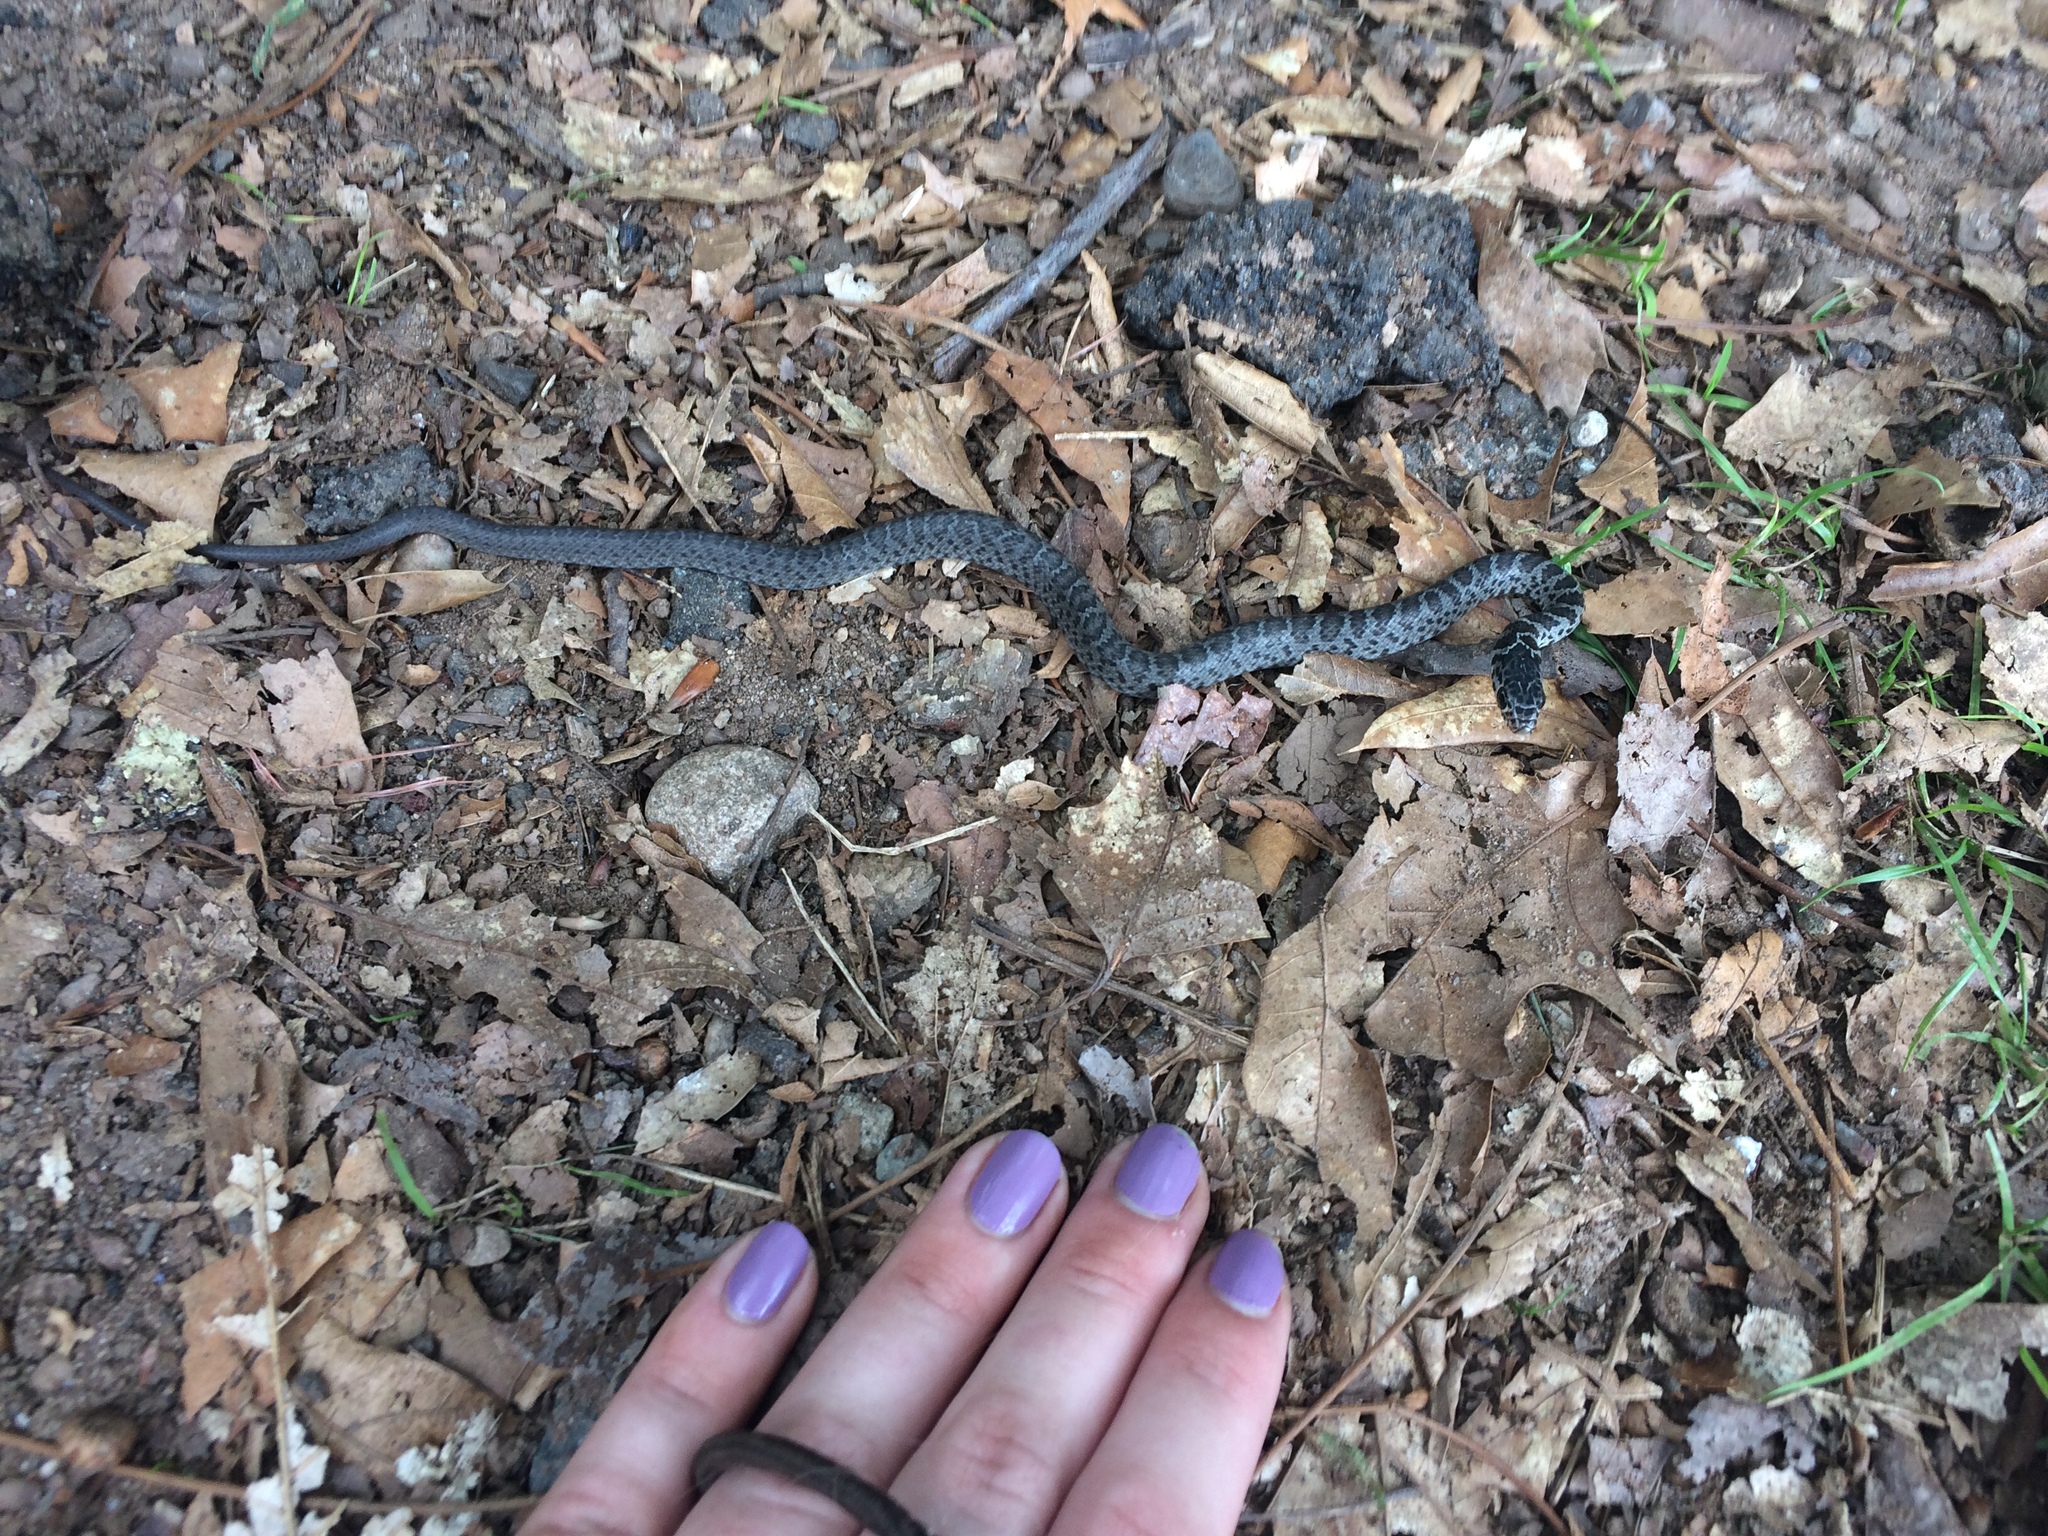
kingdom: Animalia
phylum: Chordata
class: Squamata
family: Colubridae
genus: Coluber
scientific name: Coluber constrictor
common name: Eastern racer
